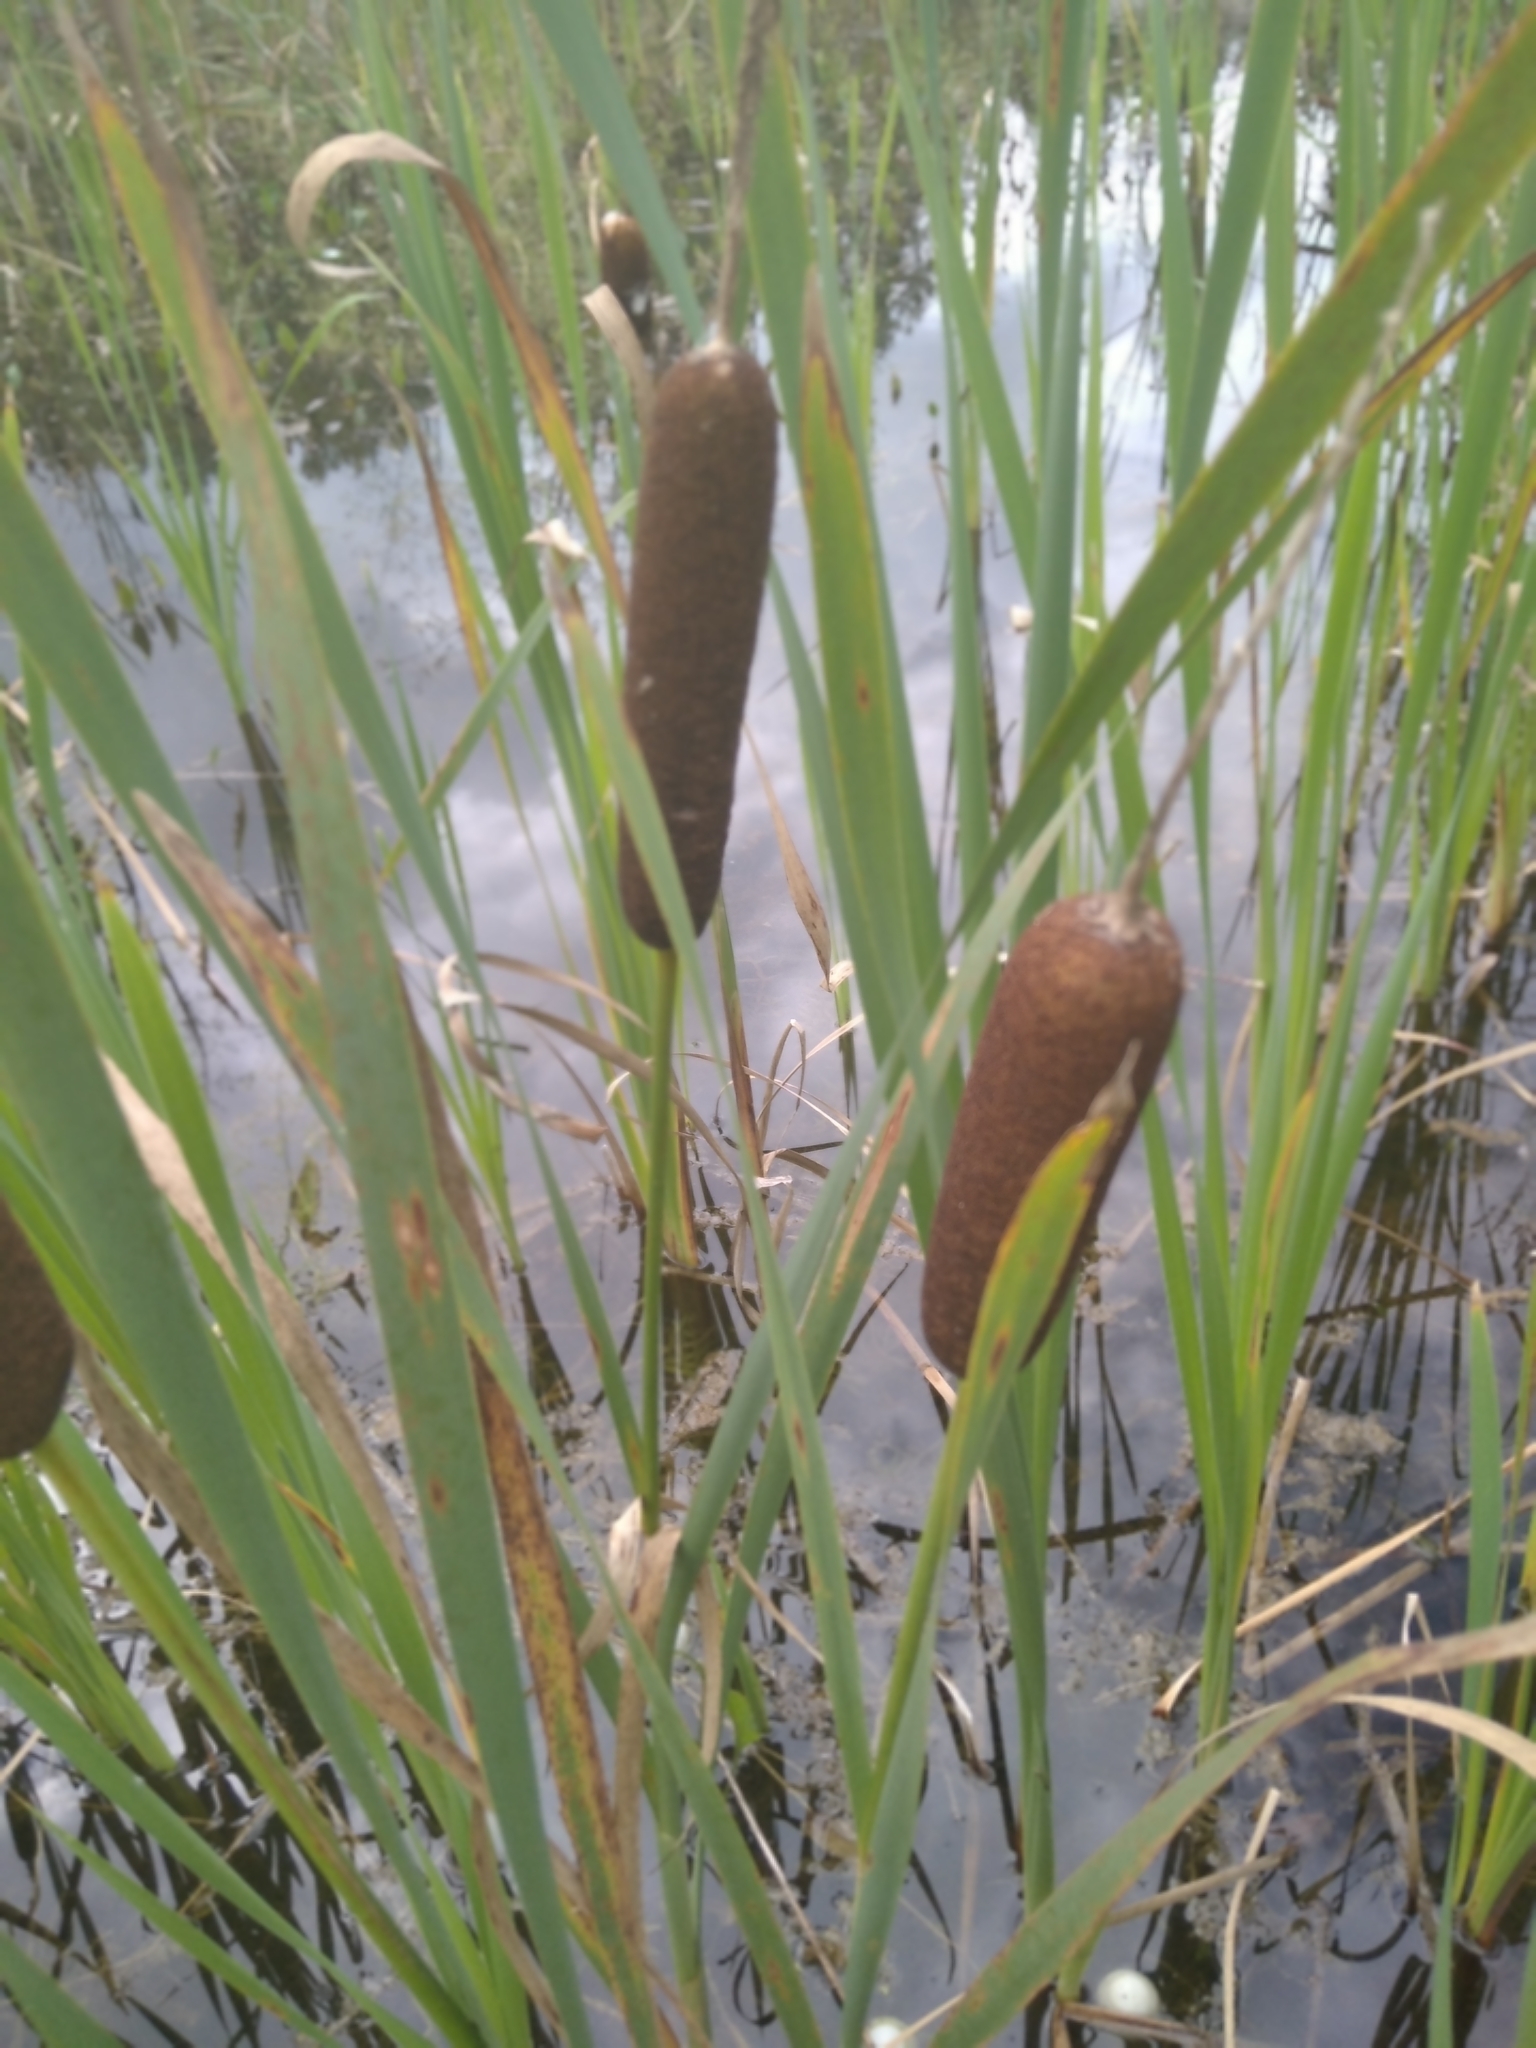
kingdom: Plantae
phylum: Tracheophyta
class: Liliopsida
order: Poales
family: Typhaceae
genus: Typha
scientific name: Typha latifolia
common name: Broadleaf cattail
